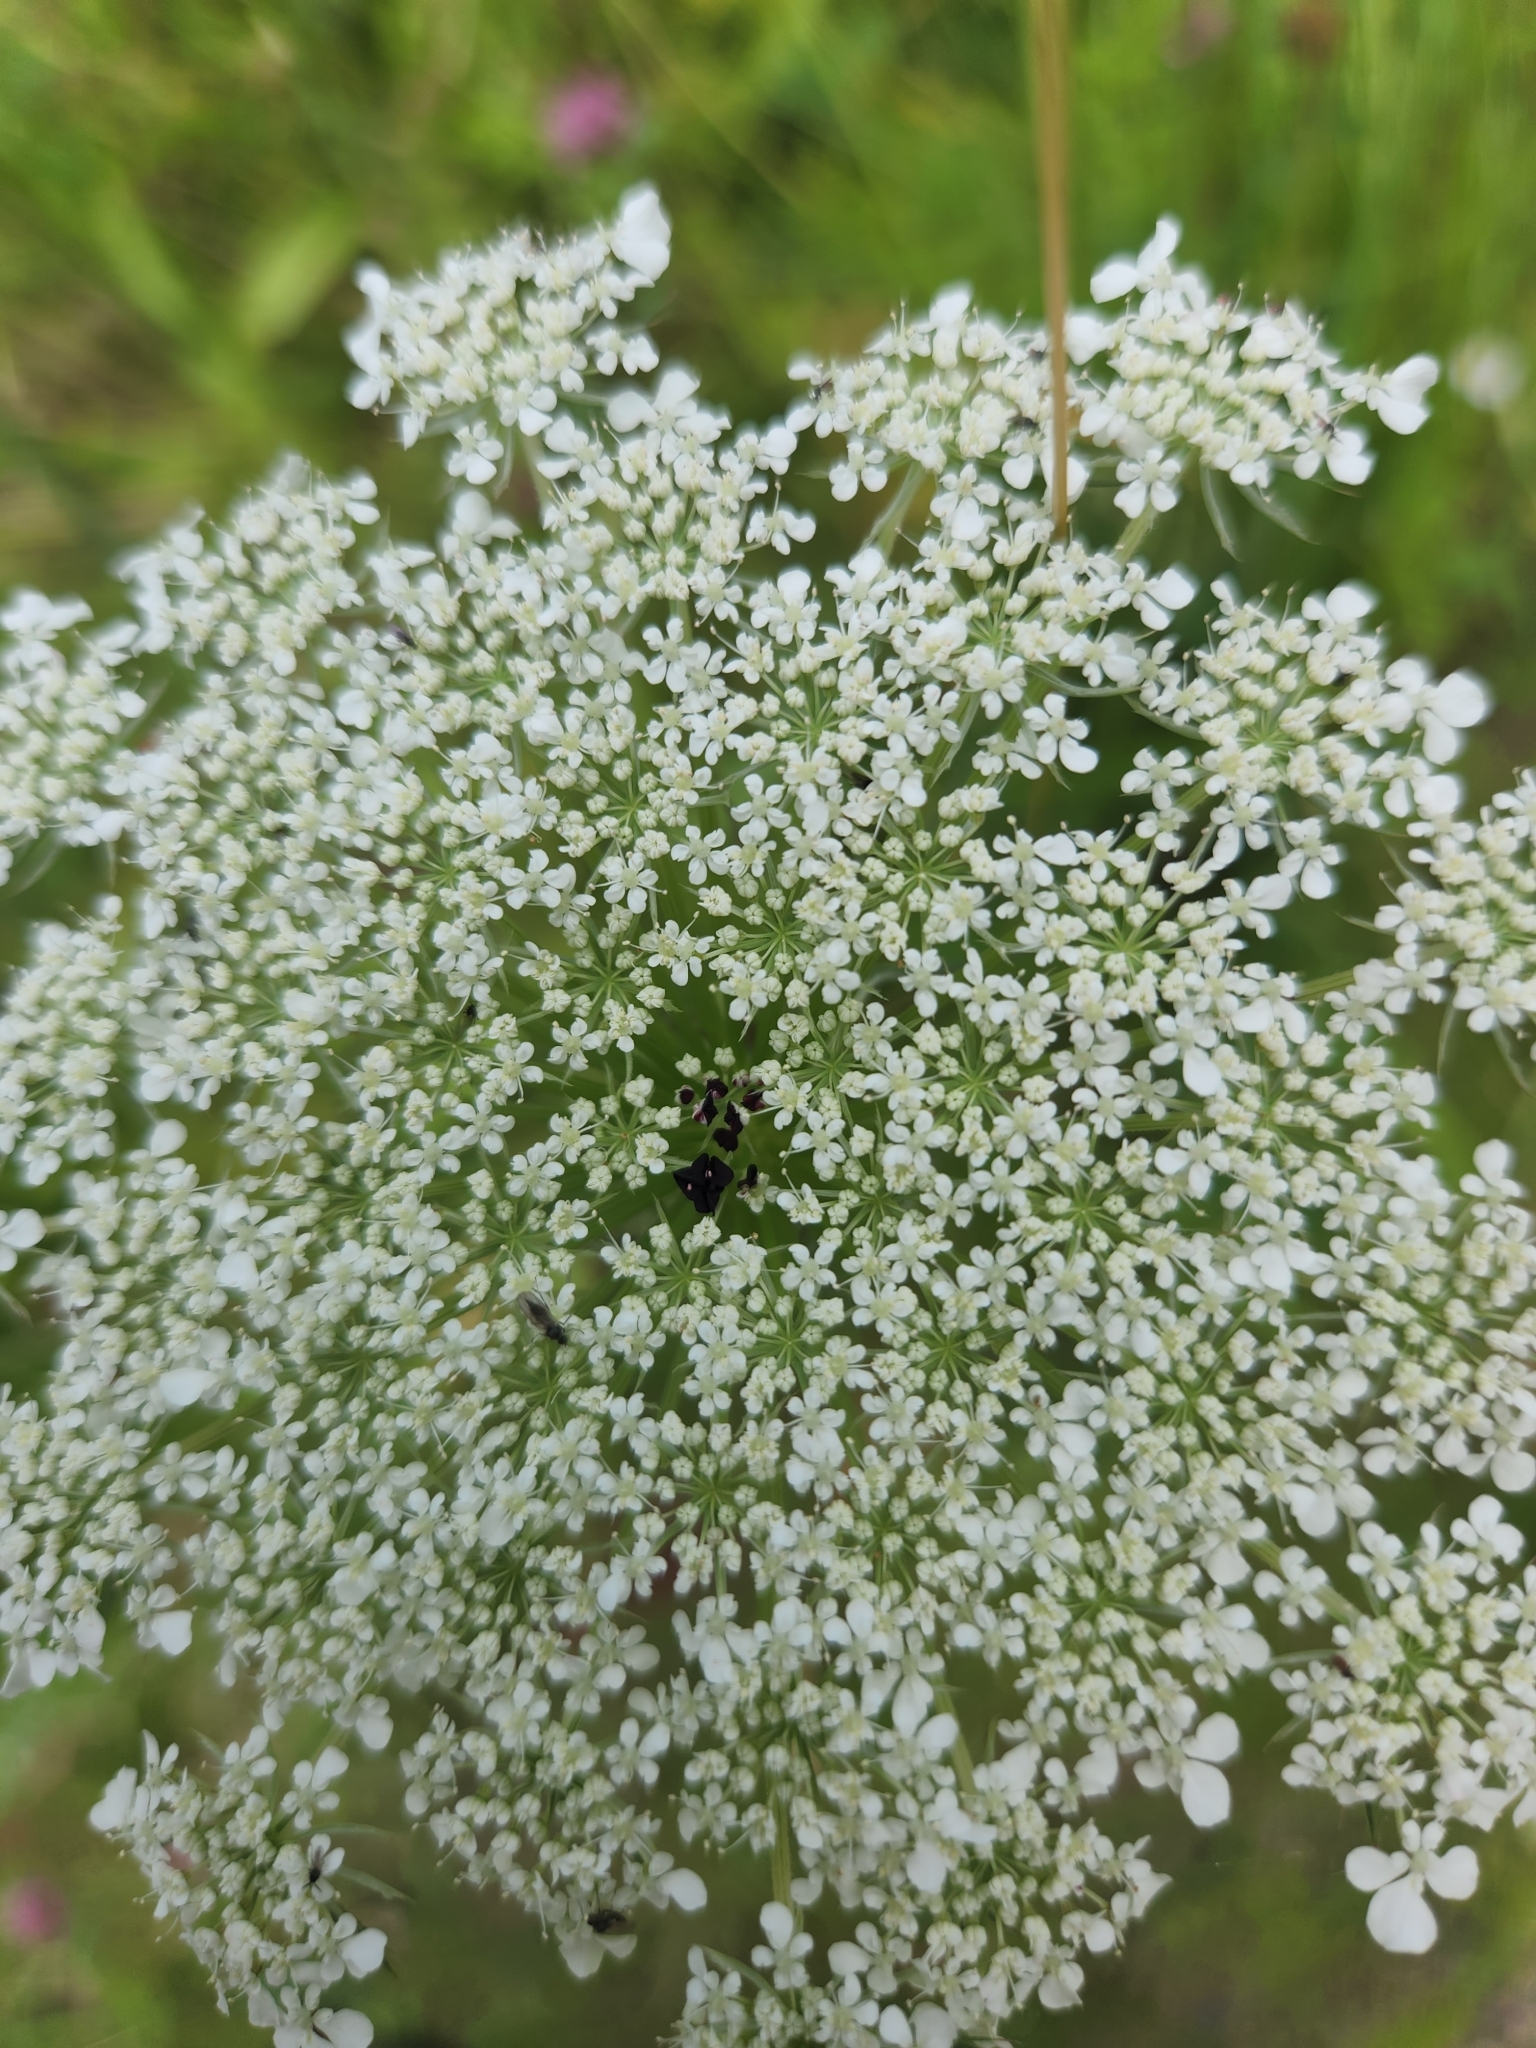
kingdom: Plantae
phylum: Tracheophyta
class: Magnoliopsida
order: Apiales
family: Apiaceae
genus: Daucus
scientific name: Daucus carota
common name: Wild carrot
